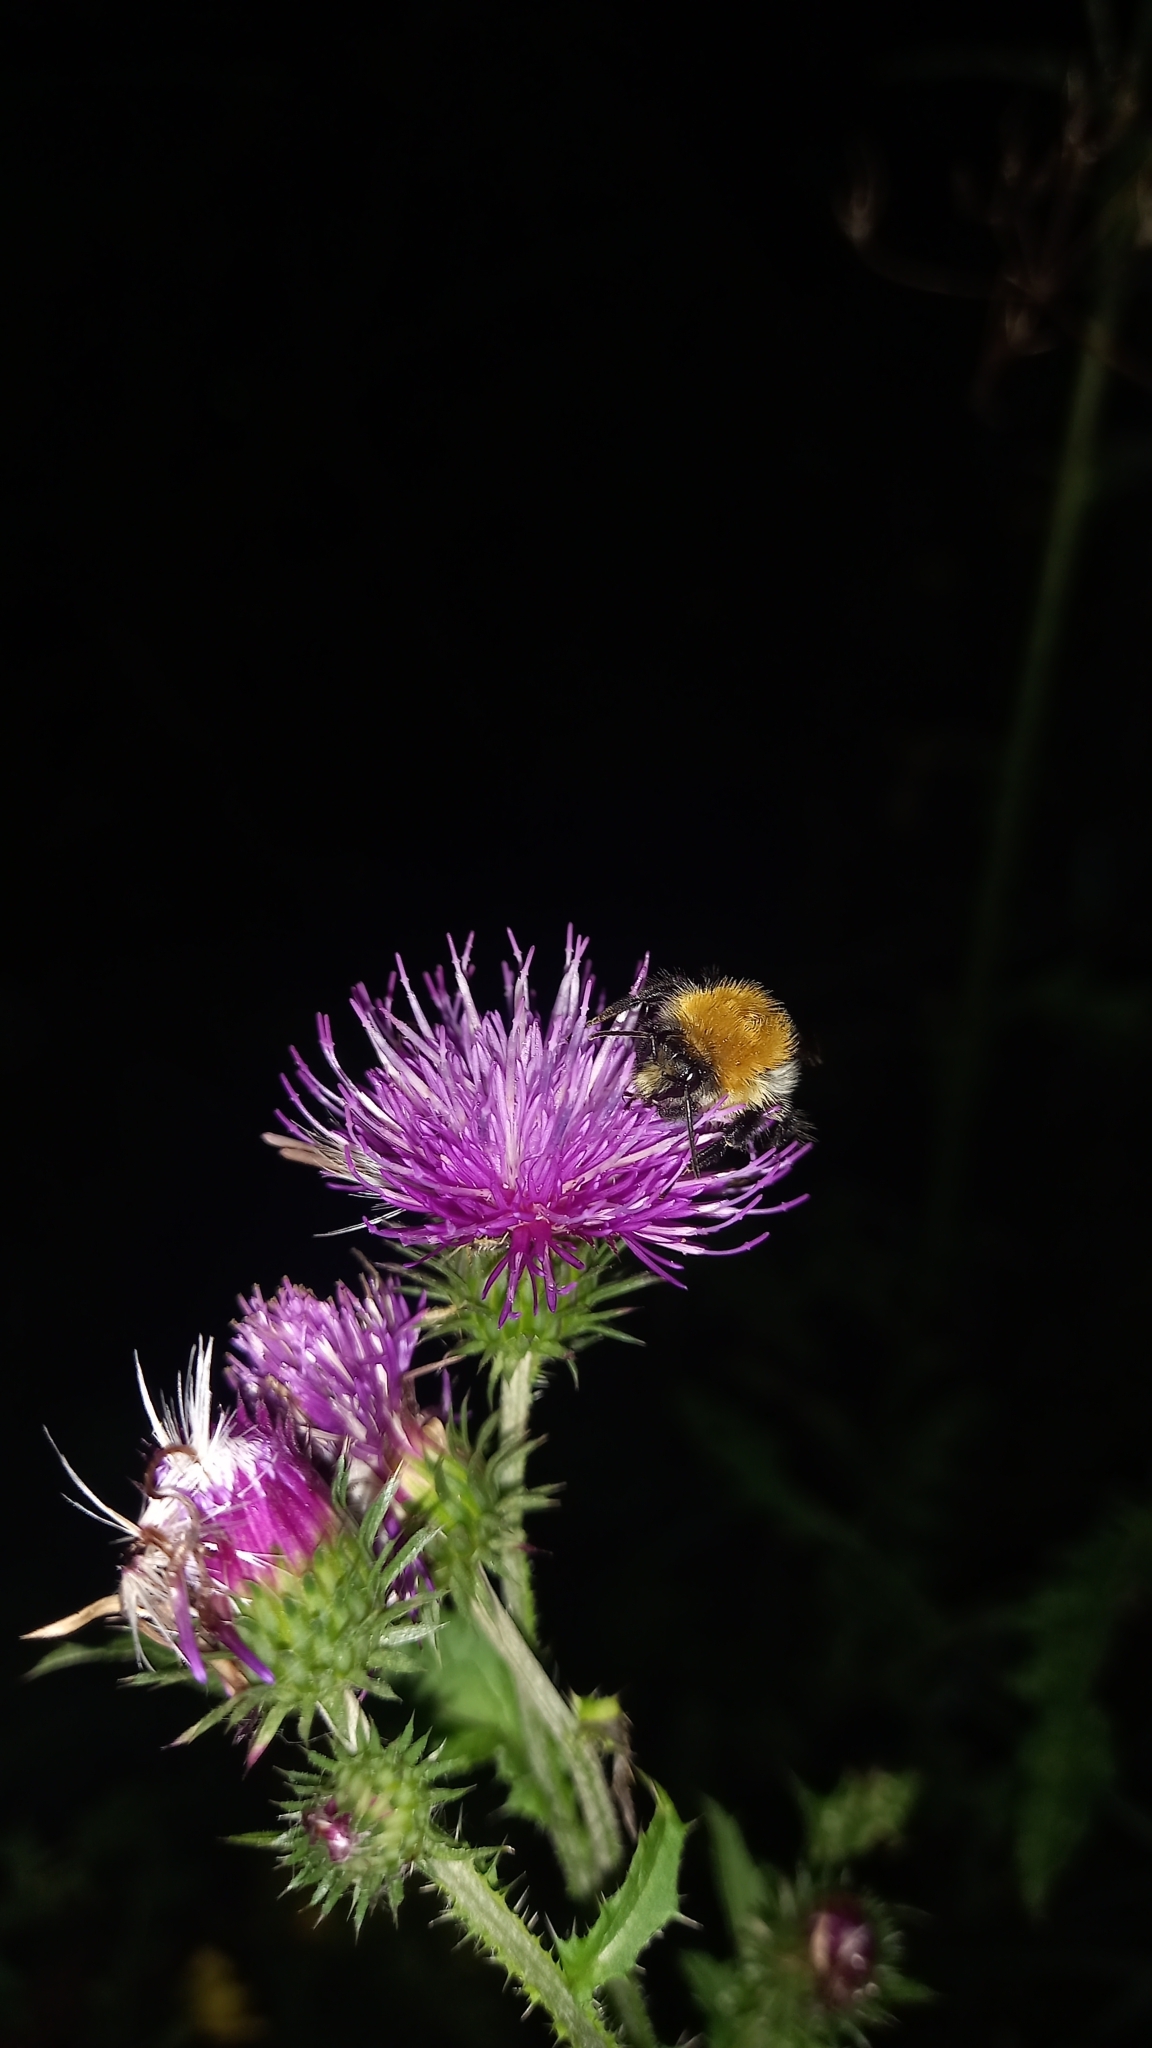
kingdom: Animalia
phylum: Arthropoda
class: Insecta
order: Hymenoptera
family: Apidae
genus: Bombus
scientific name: Bombus pascuorum
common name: Common carder bee
